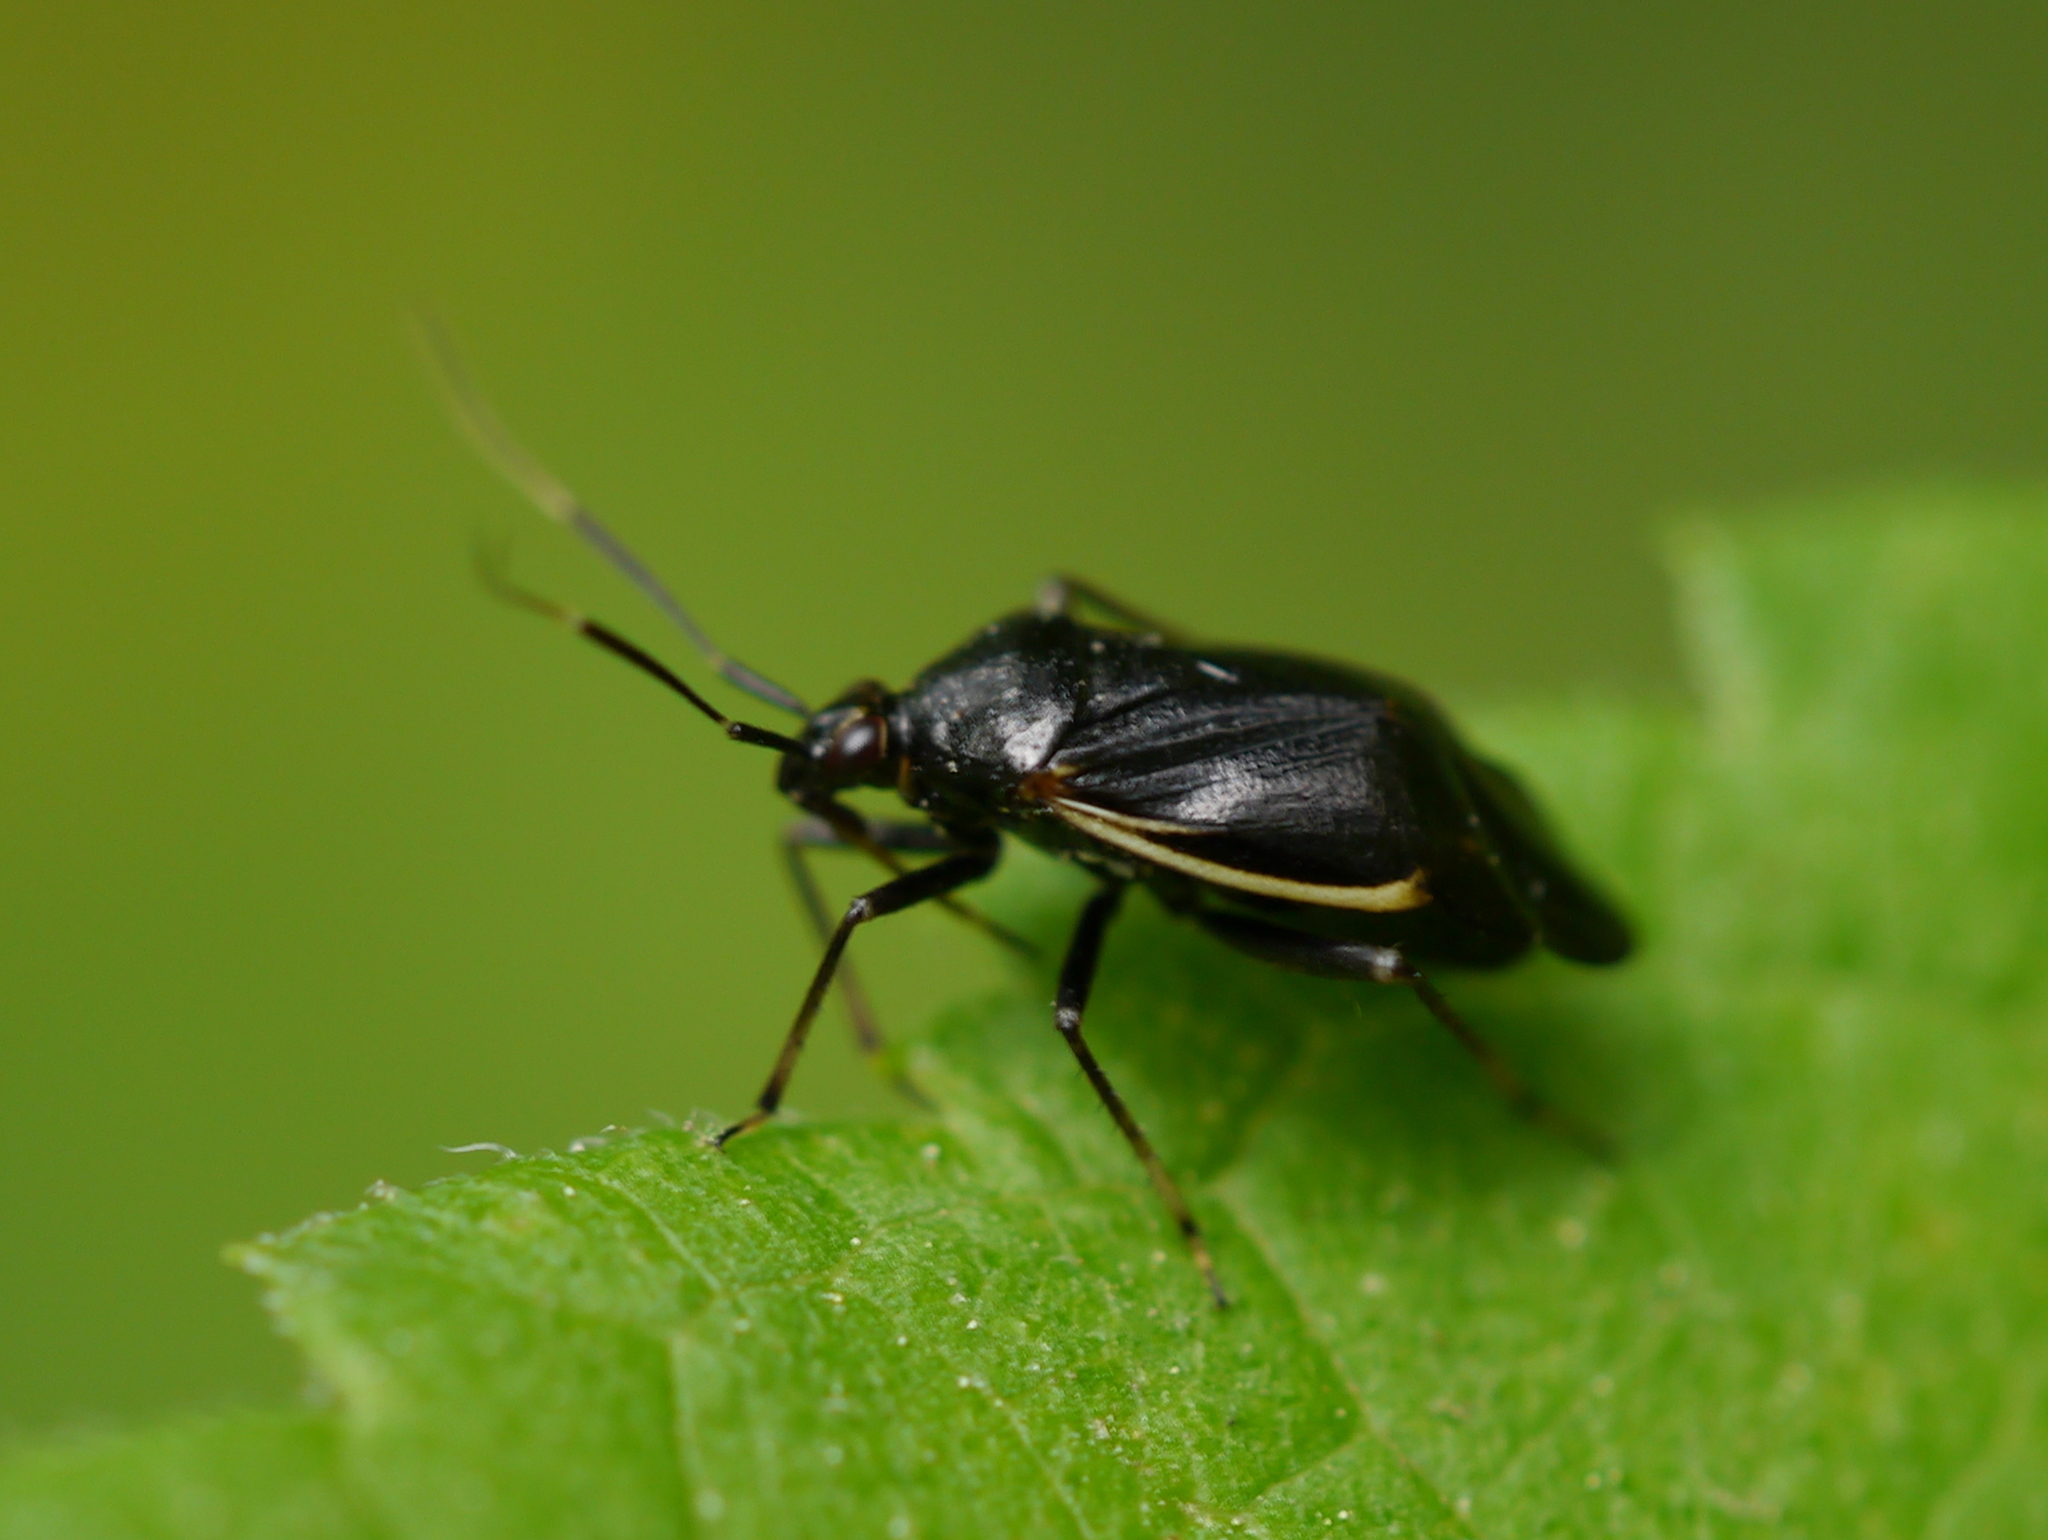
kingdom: Animalia
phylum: Arthropoda
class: Insecta
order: Hemiptera
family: Miridae
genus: Metriorrhynchomiris
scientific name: Metriorrhynchomiris dislocatus
